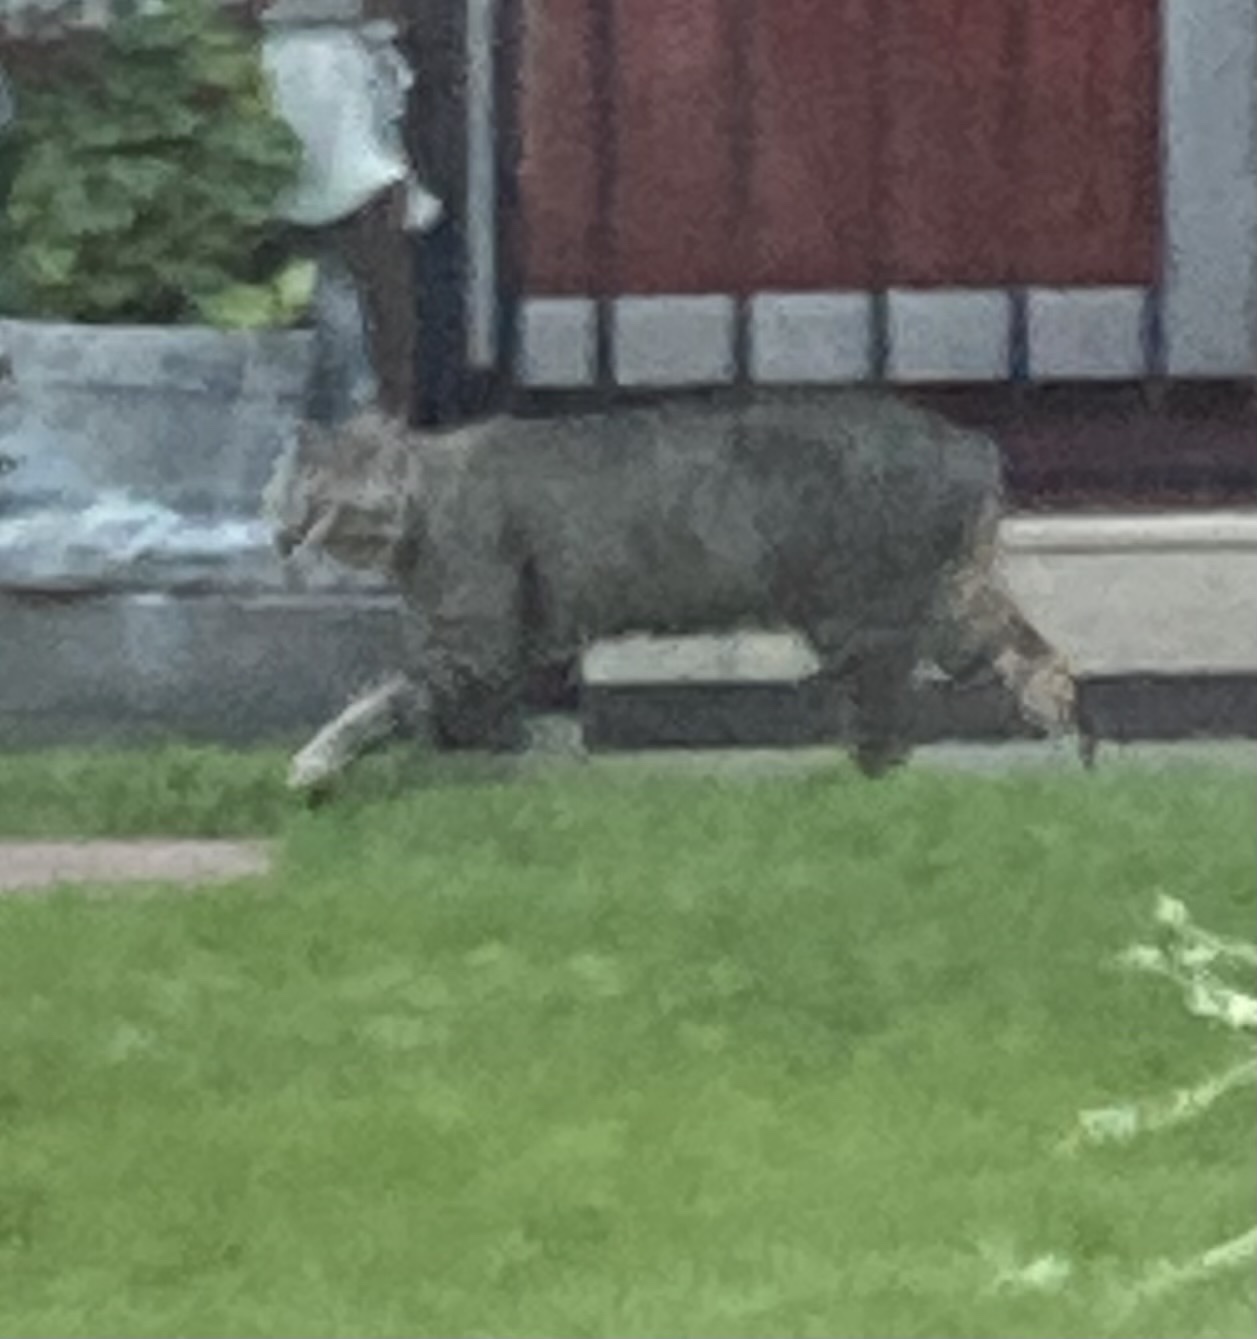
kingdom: Animalia
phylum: Chordata
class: Mammalia
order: Carnivora
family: Felidae
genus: Felis
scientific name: Felis catus
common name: Domestic cat
